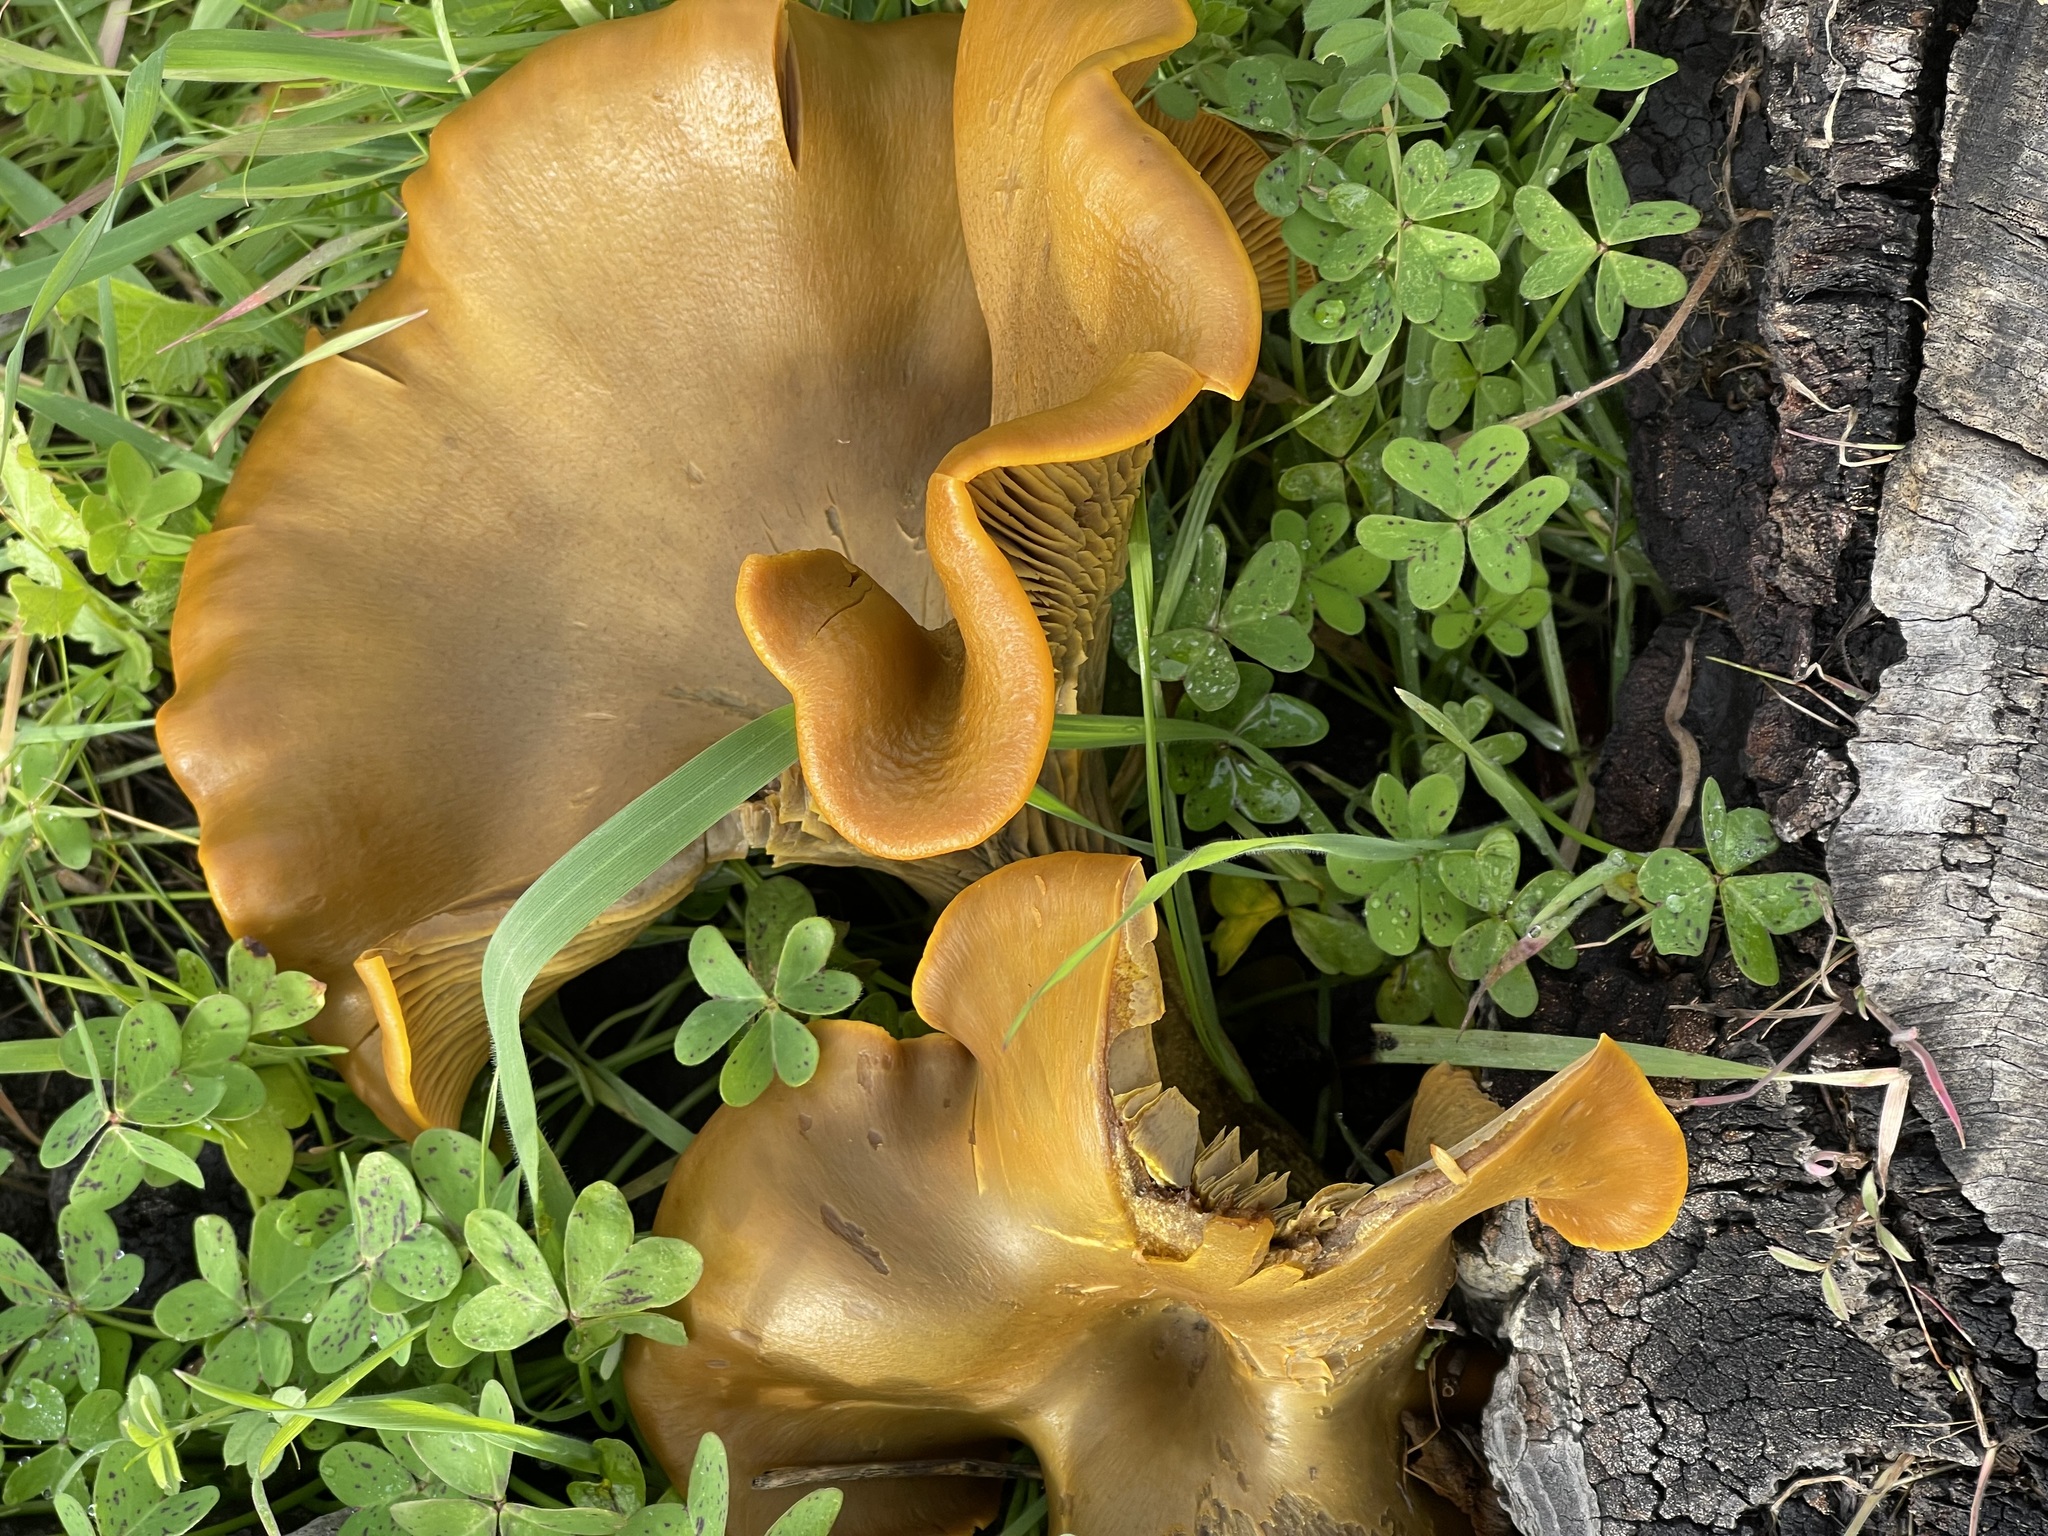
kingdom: Fungi
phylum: Basidiomycota
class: Agaricomycetes
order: Agaricales
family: Omphalotaceae
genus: Omphalotus
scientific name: Omphalotus olivascens
